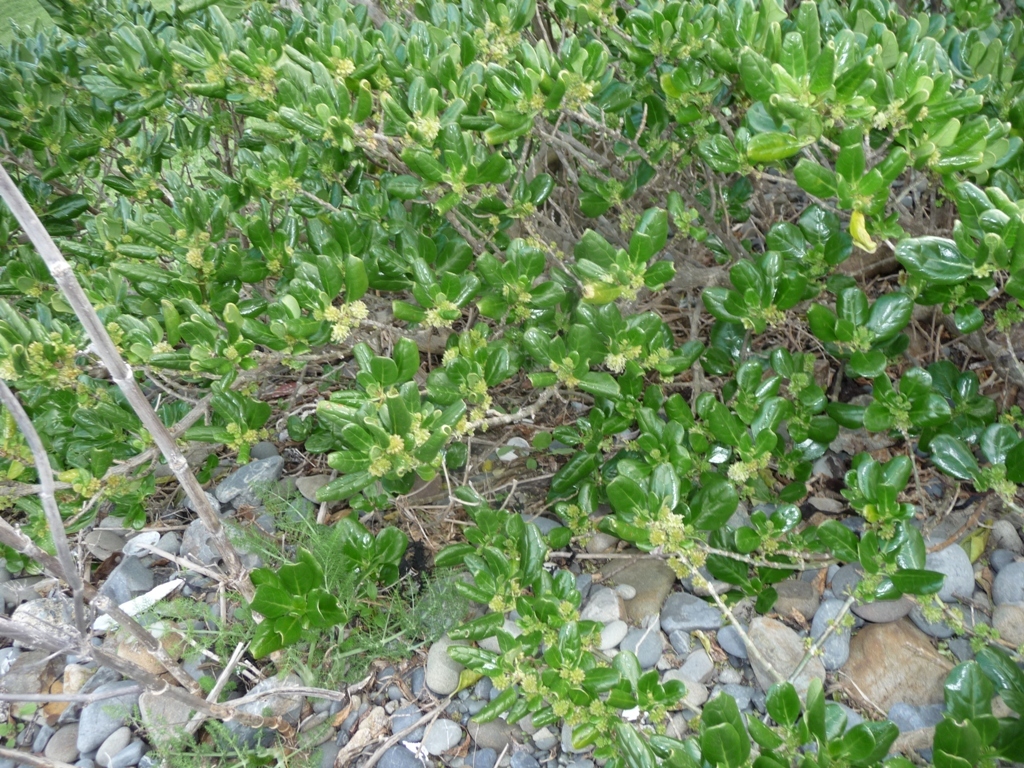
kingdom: Plantae
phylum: Tracheophyta
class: Magnoliopsida
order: Gentianales
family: Rubiaceae
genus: Coprosma
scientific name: Coprosma repens
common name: Tree bedstraw
